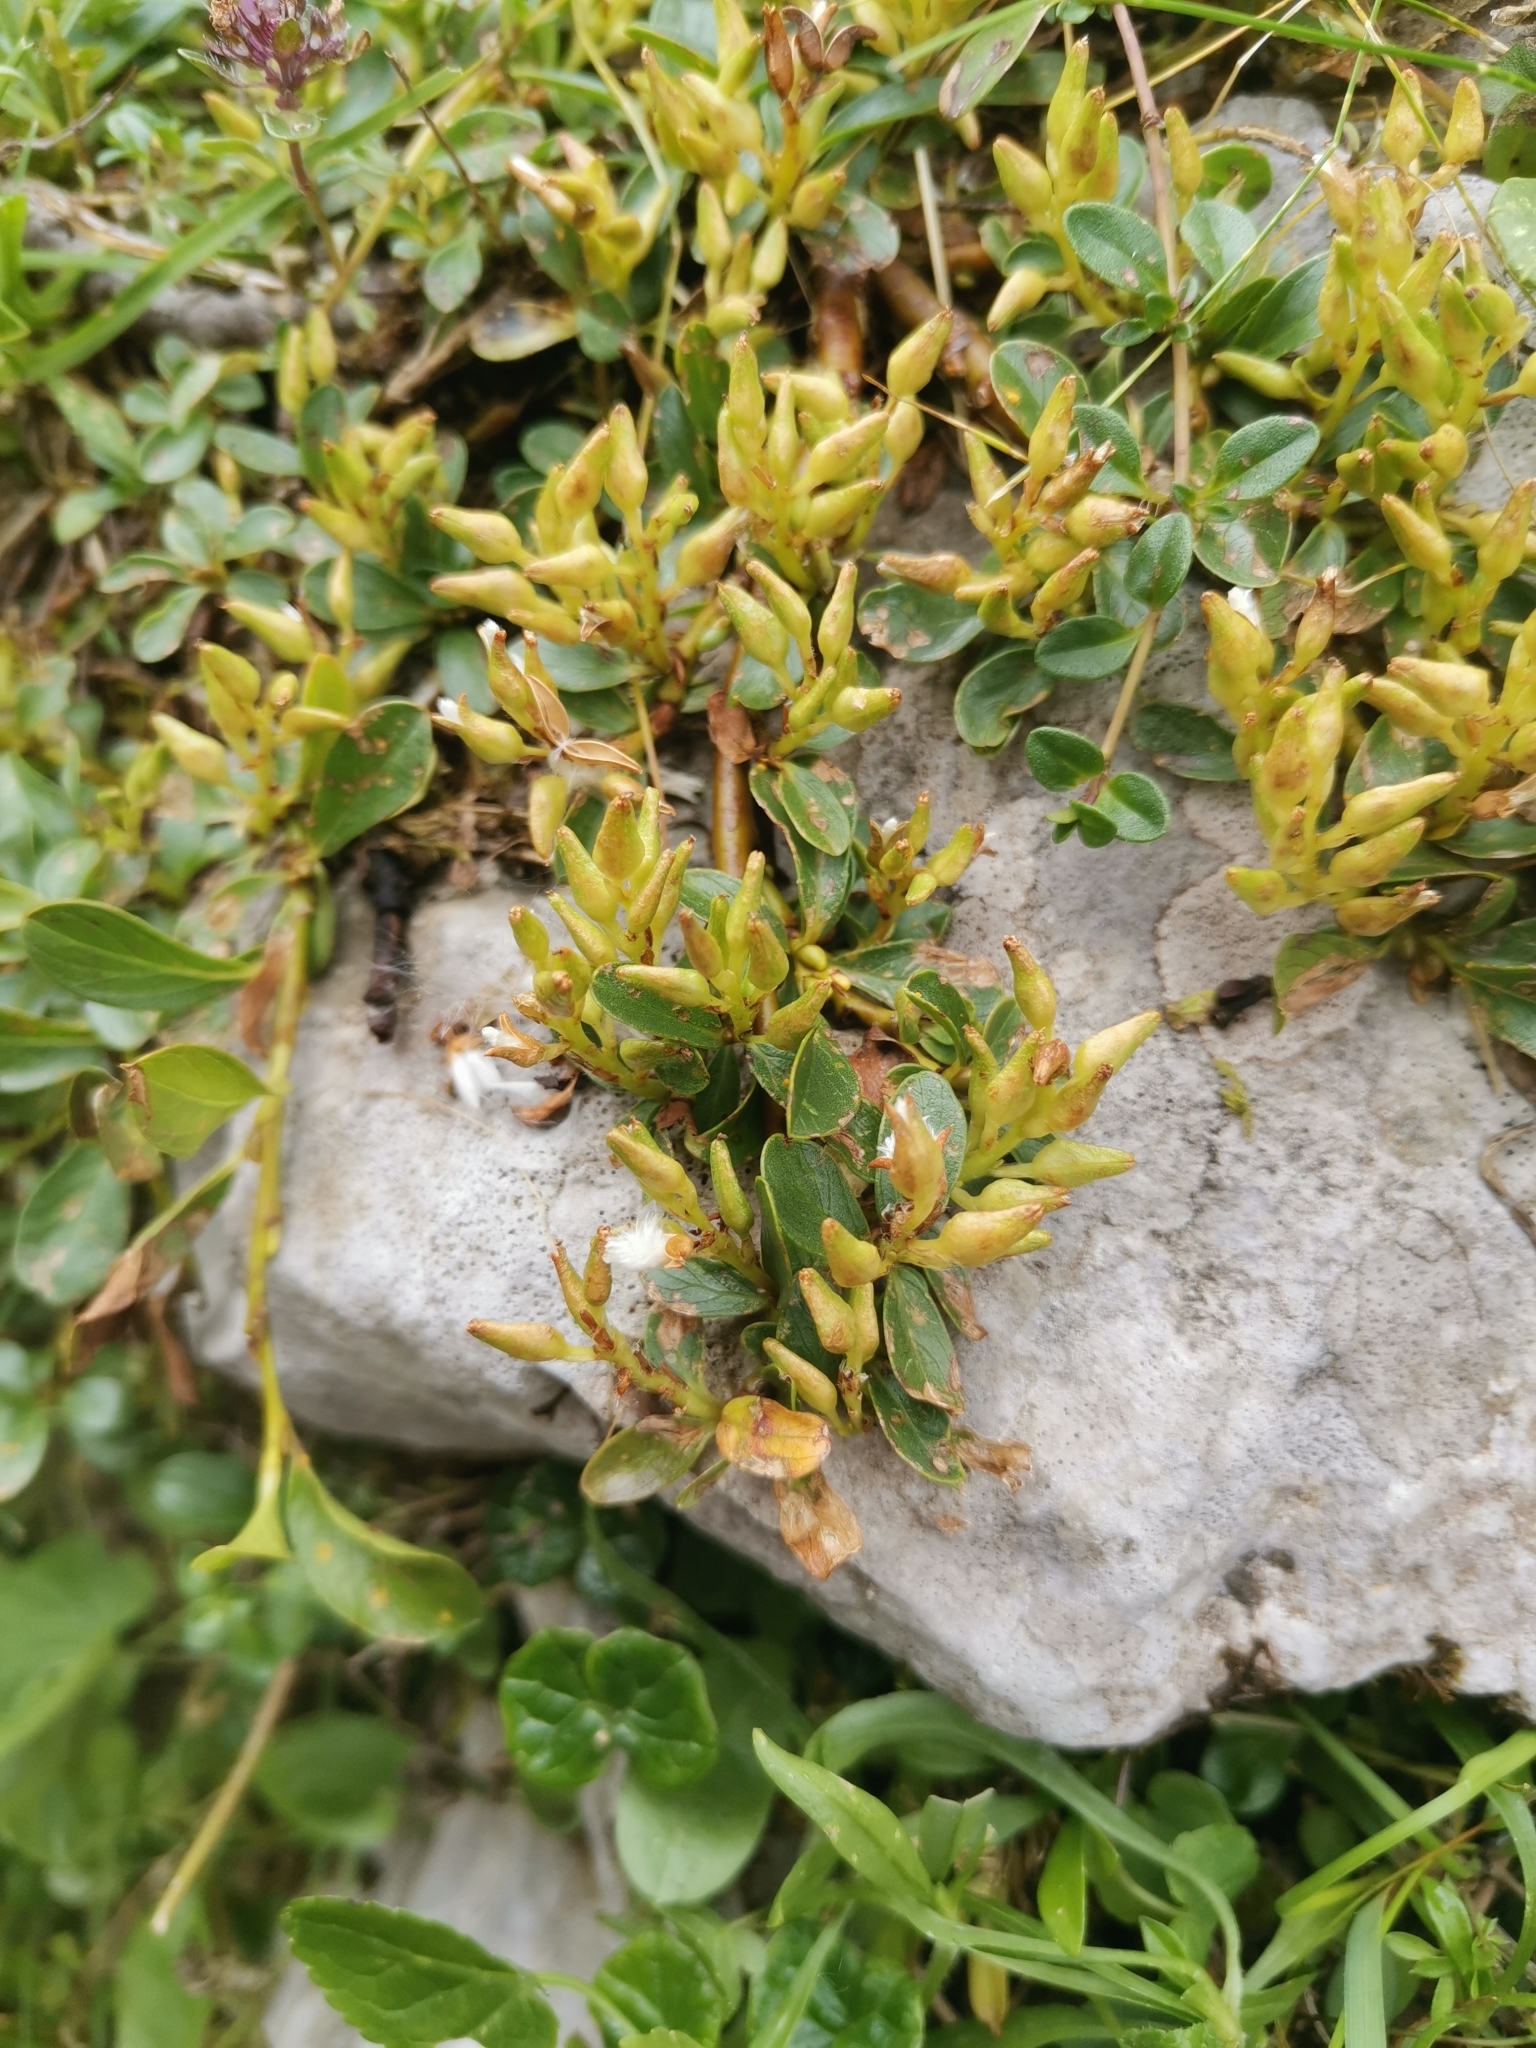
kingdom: Plantae
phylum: Tracheophyta
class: Magnoliopsida
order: Malpighiales
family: Salicaceae
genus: Salix
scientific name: Salix retusa
